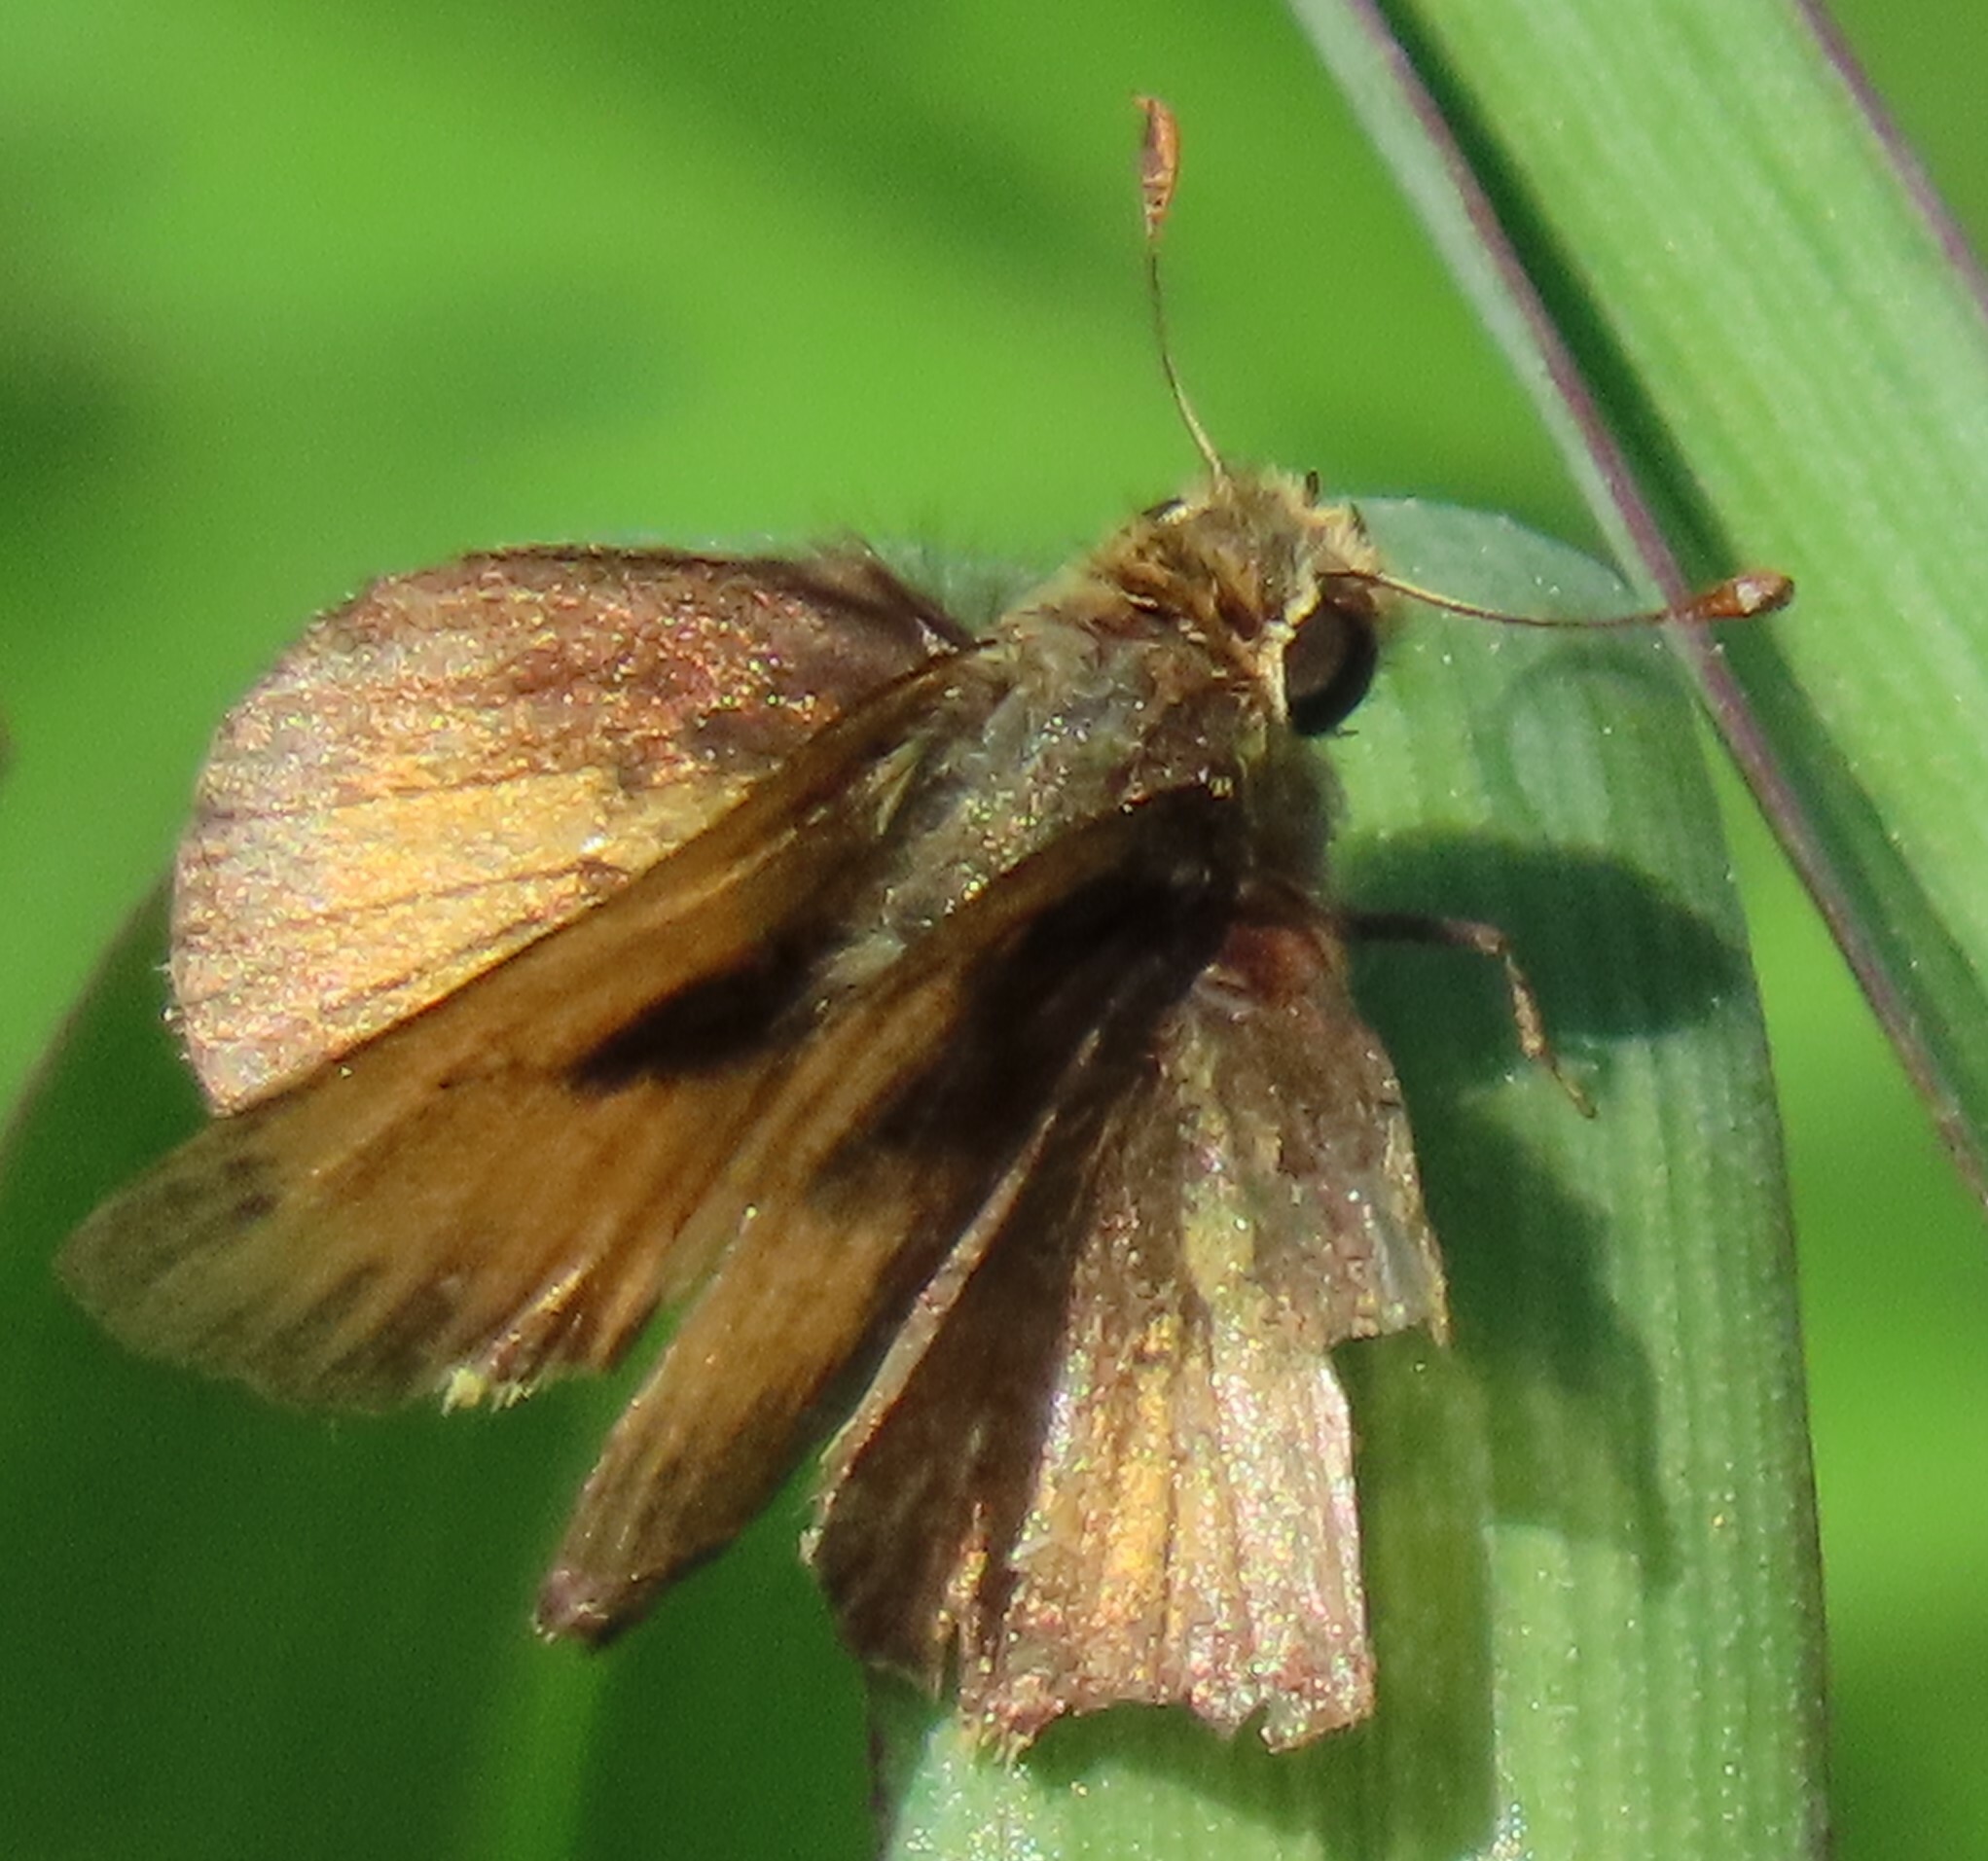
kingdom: Animalia
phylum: Arthropoda
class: Insecta
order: Lepidoptera
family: Hesperiidae
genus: Polites
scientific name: Polites vibex
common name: Whirlabout
